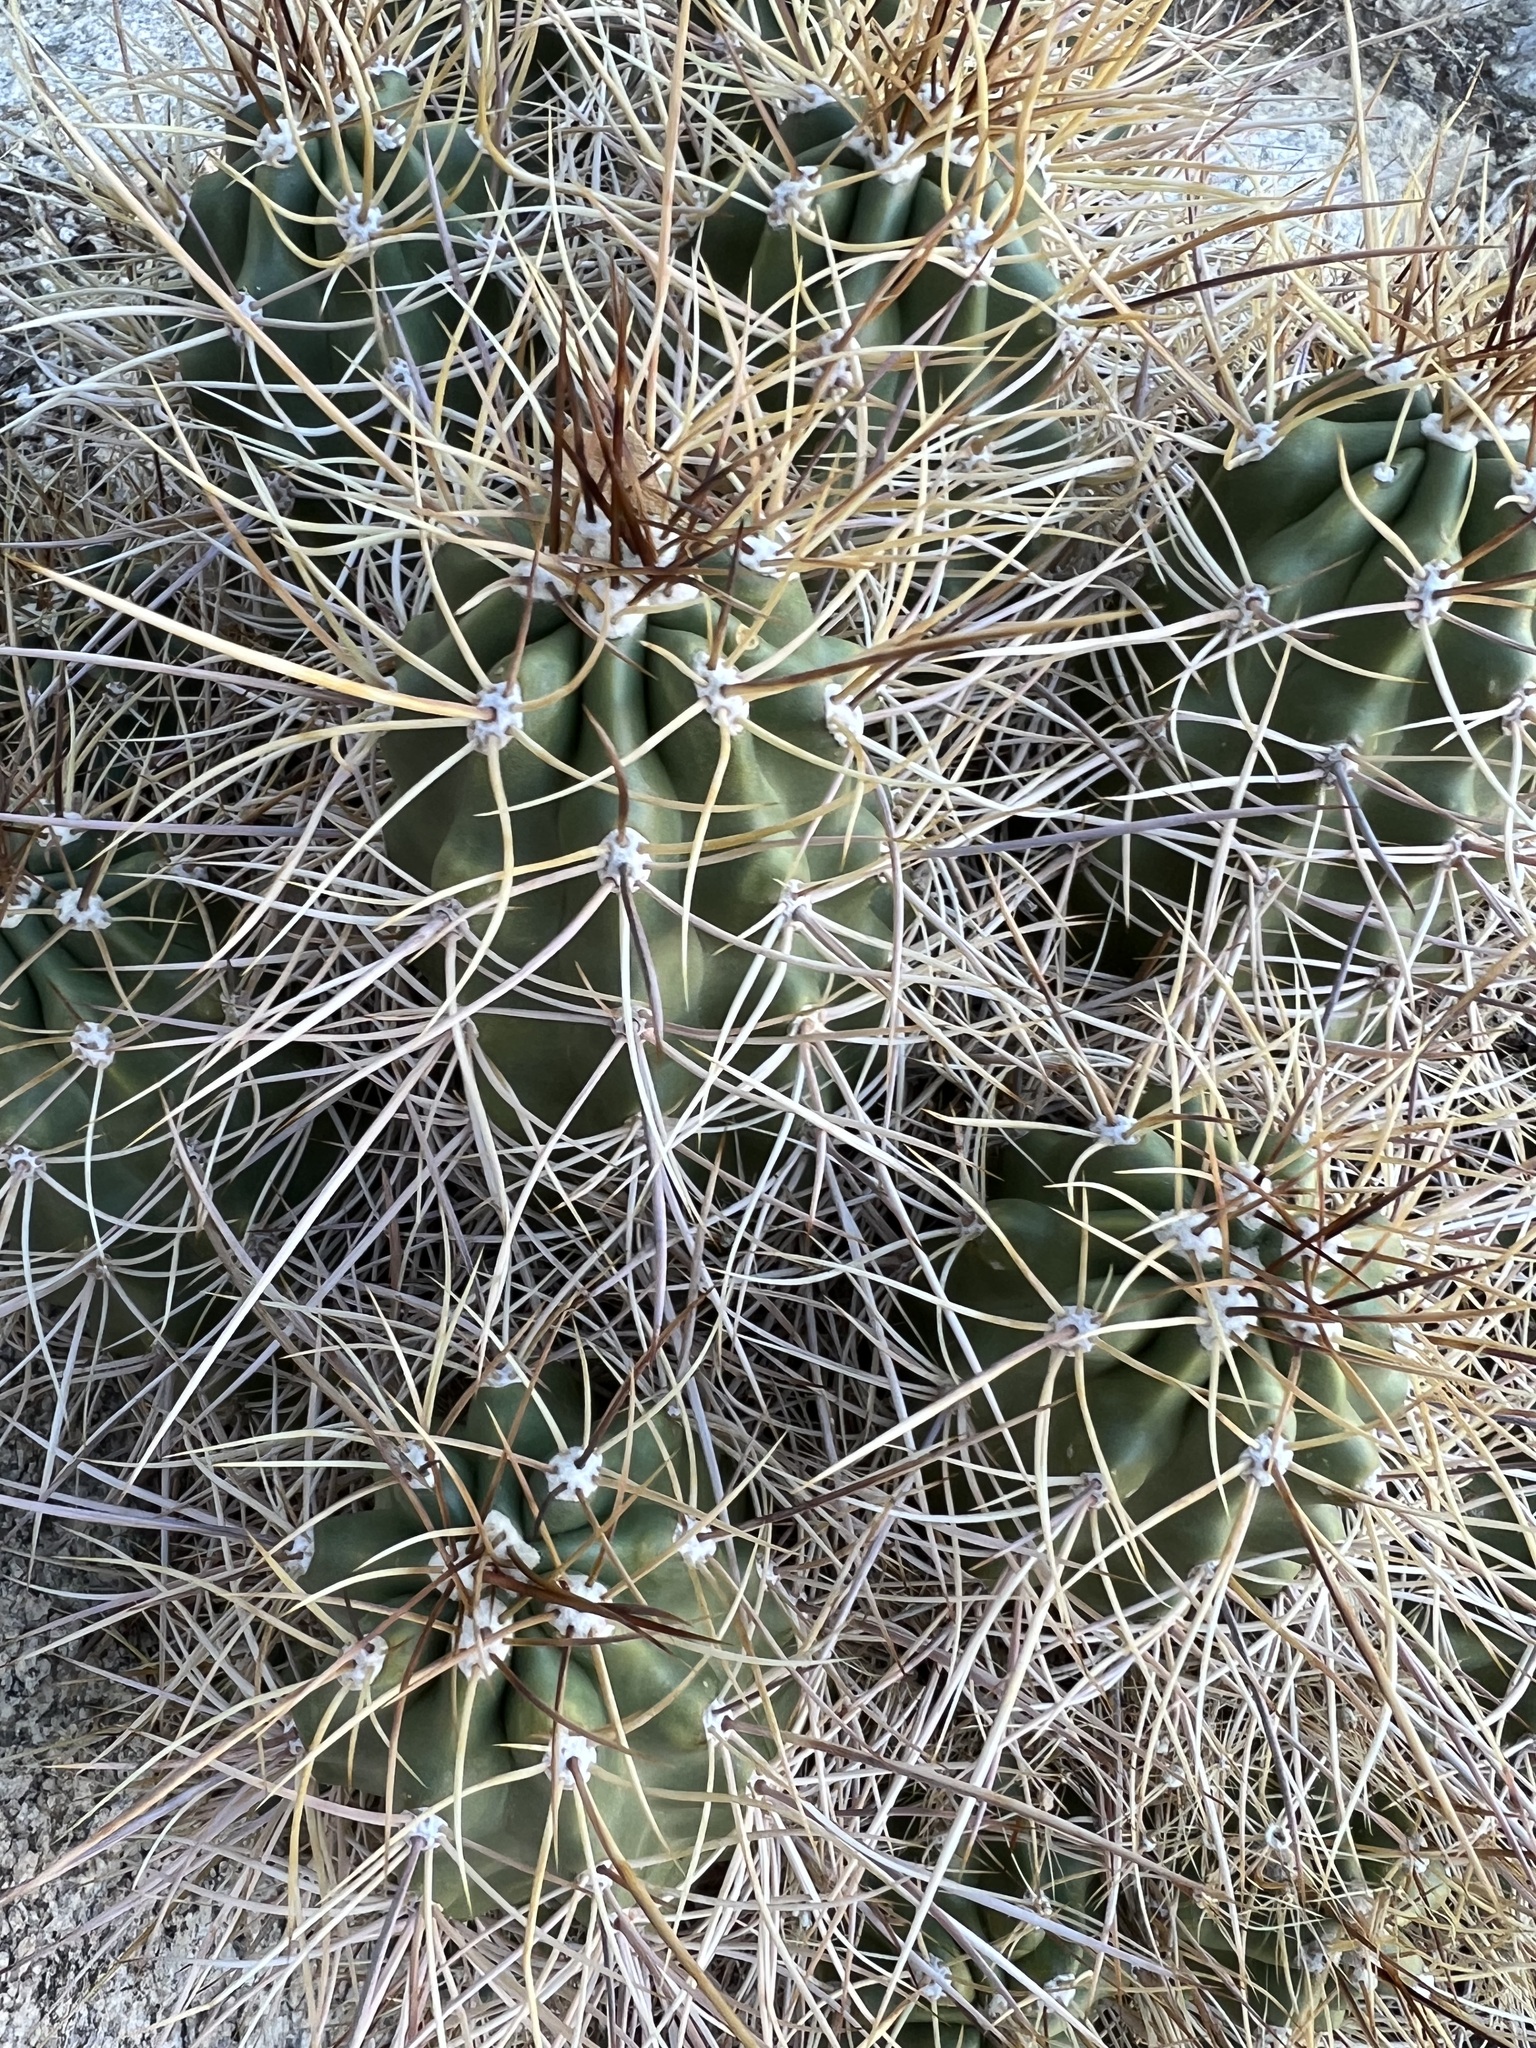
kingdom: Plantae
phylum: Tracheophyta
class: Magnoliopsida
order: Caryophyllales
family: Cactaceae
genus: Echinocereus
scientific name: Echinocereus triglochidiatus
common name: Claretcup hedgehog
